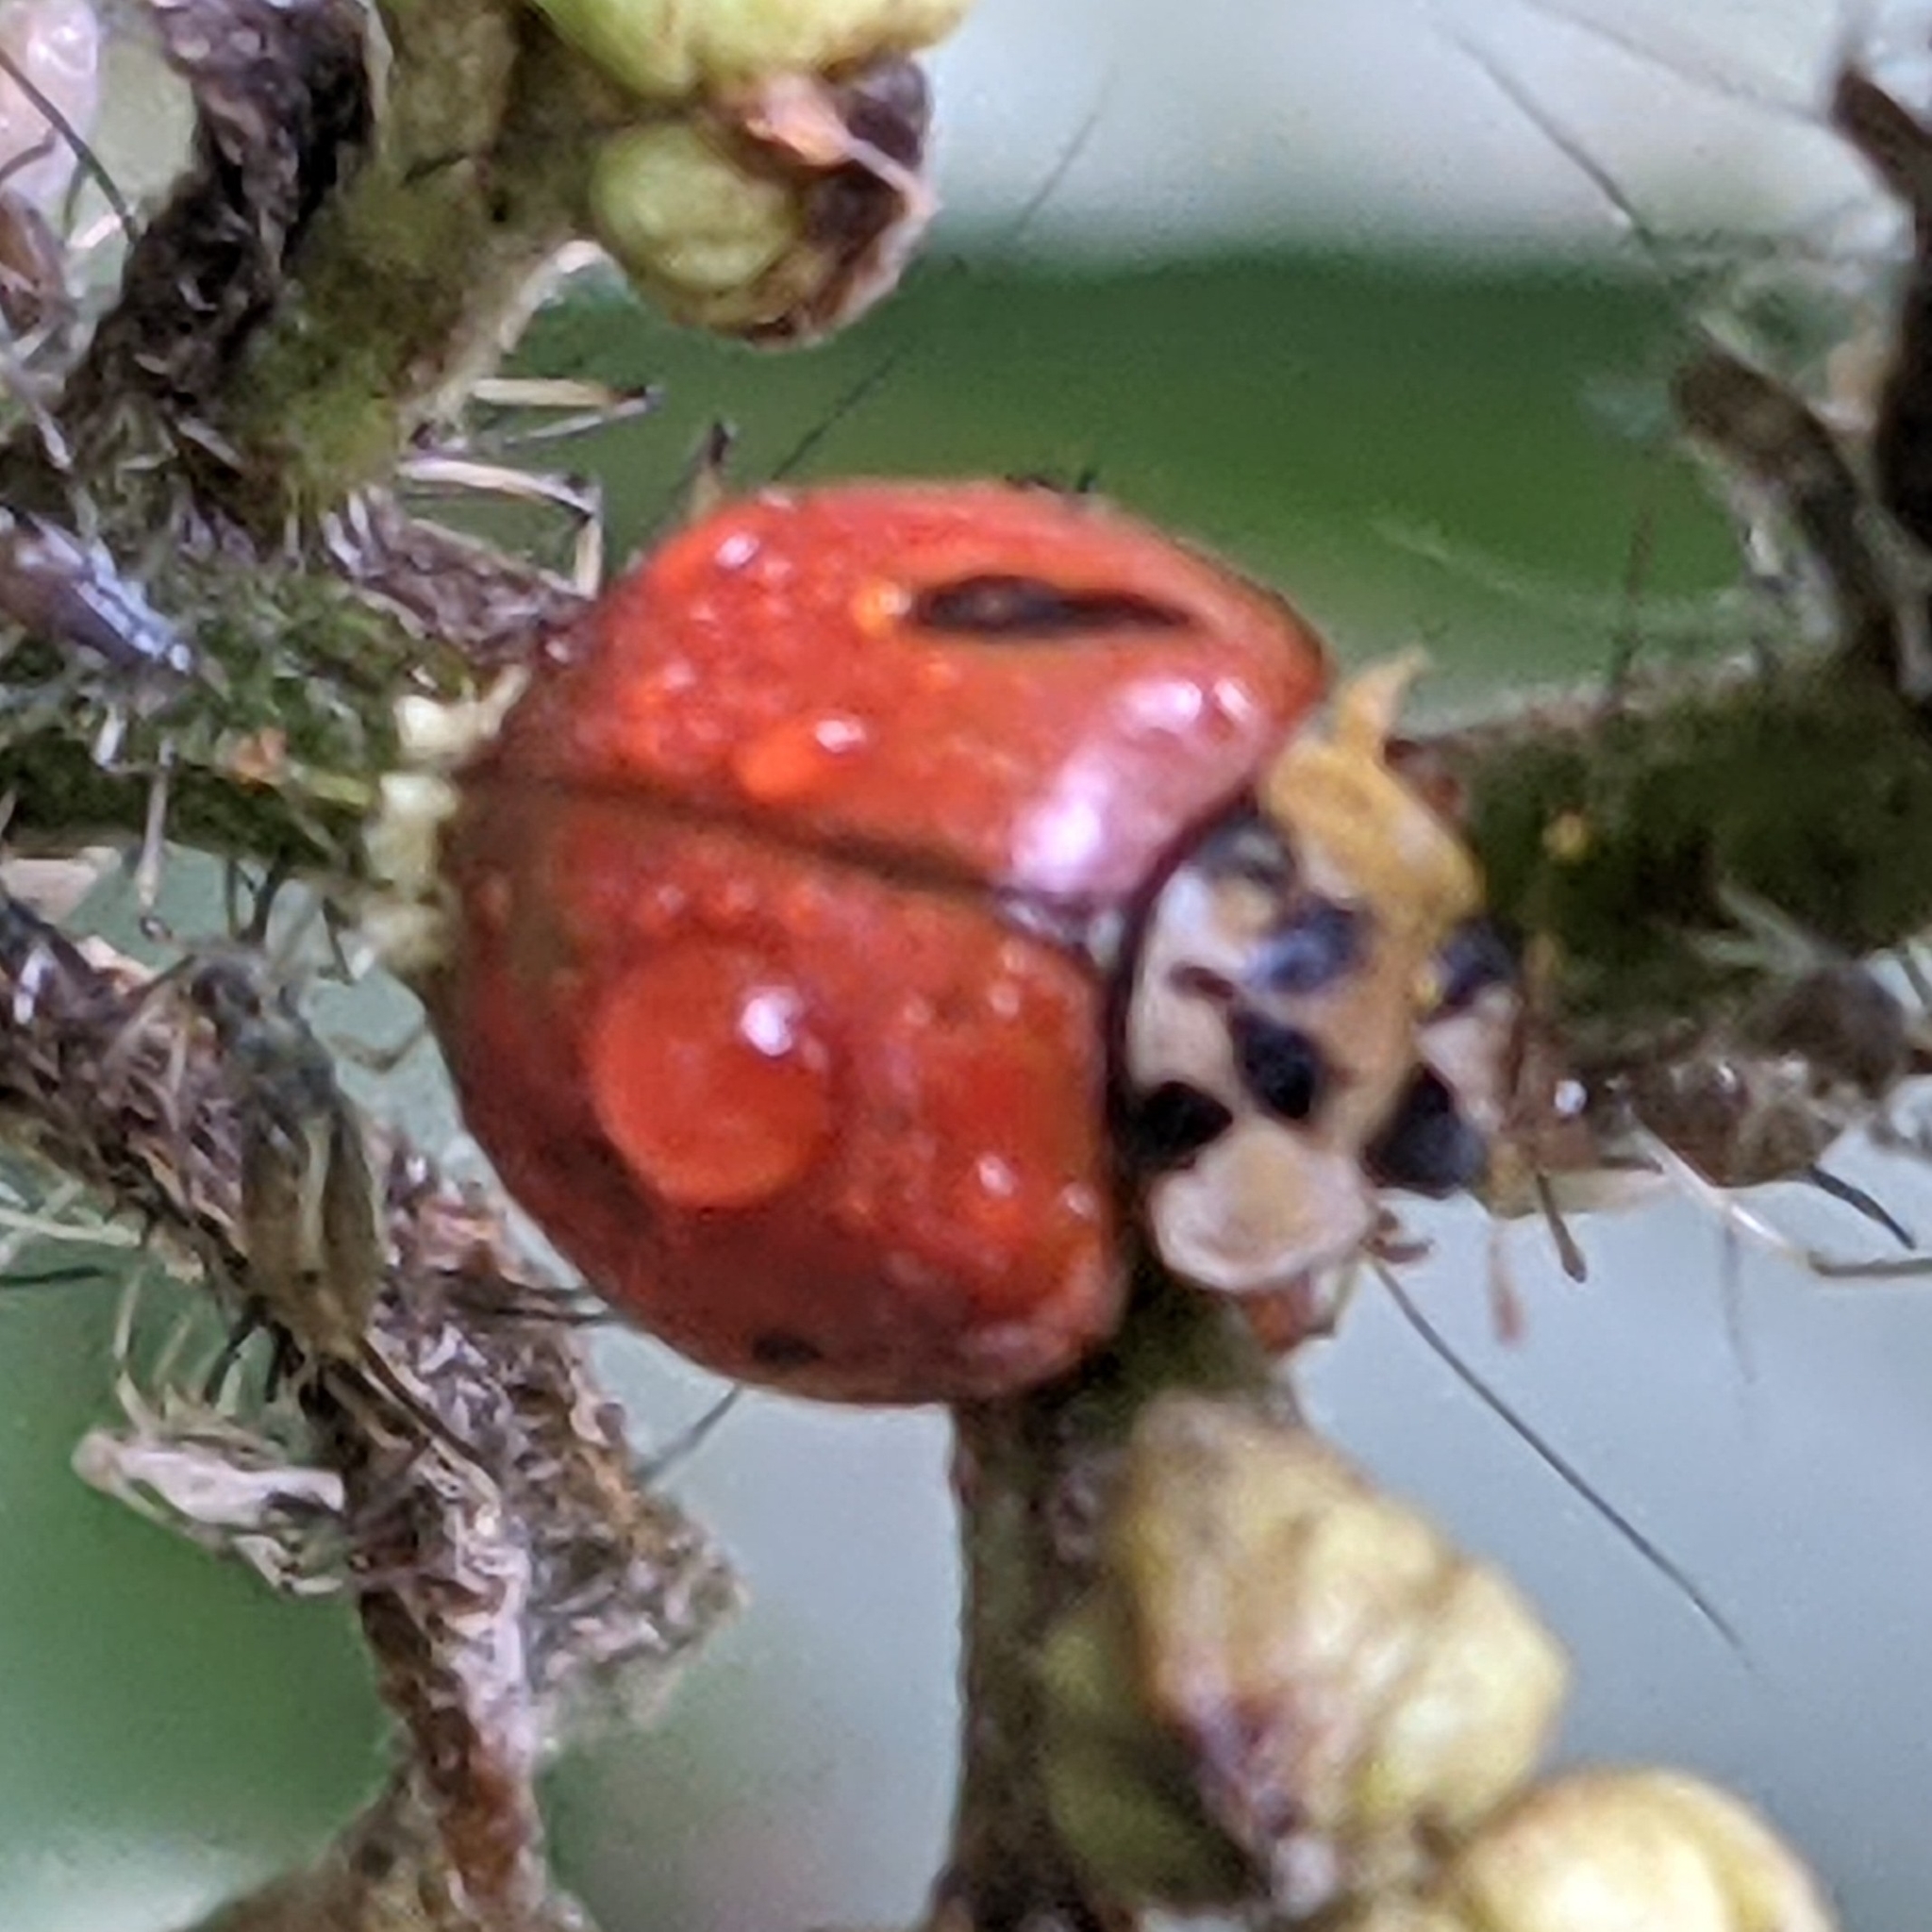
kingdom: Animalia
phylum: Arthropoda
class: Insecta
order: Coleoptera
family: Coccinellidae
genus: Harmonia
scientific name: Harmonia axyridis
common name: Harlequin ladybird
